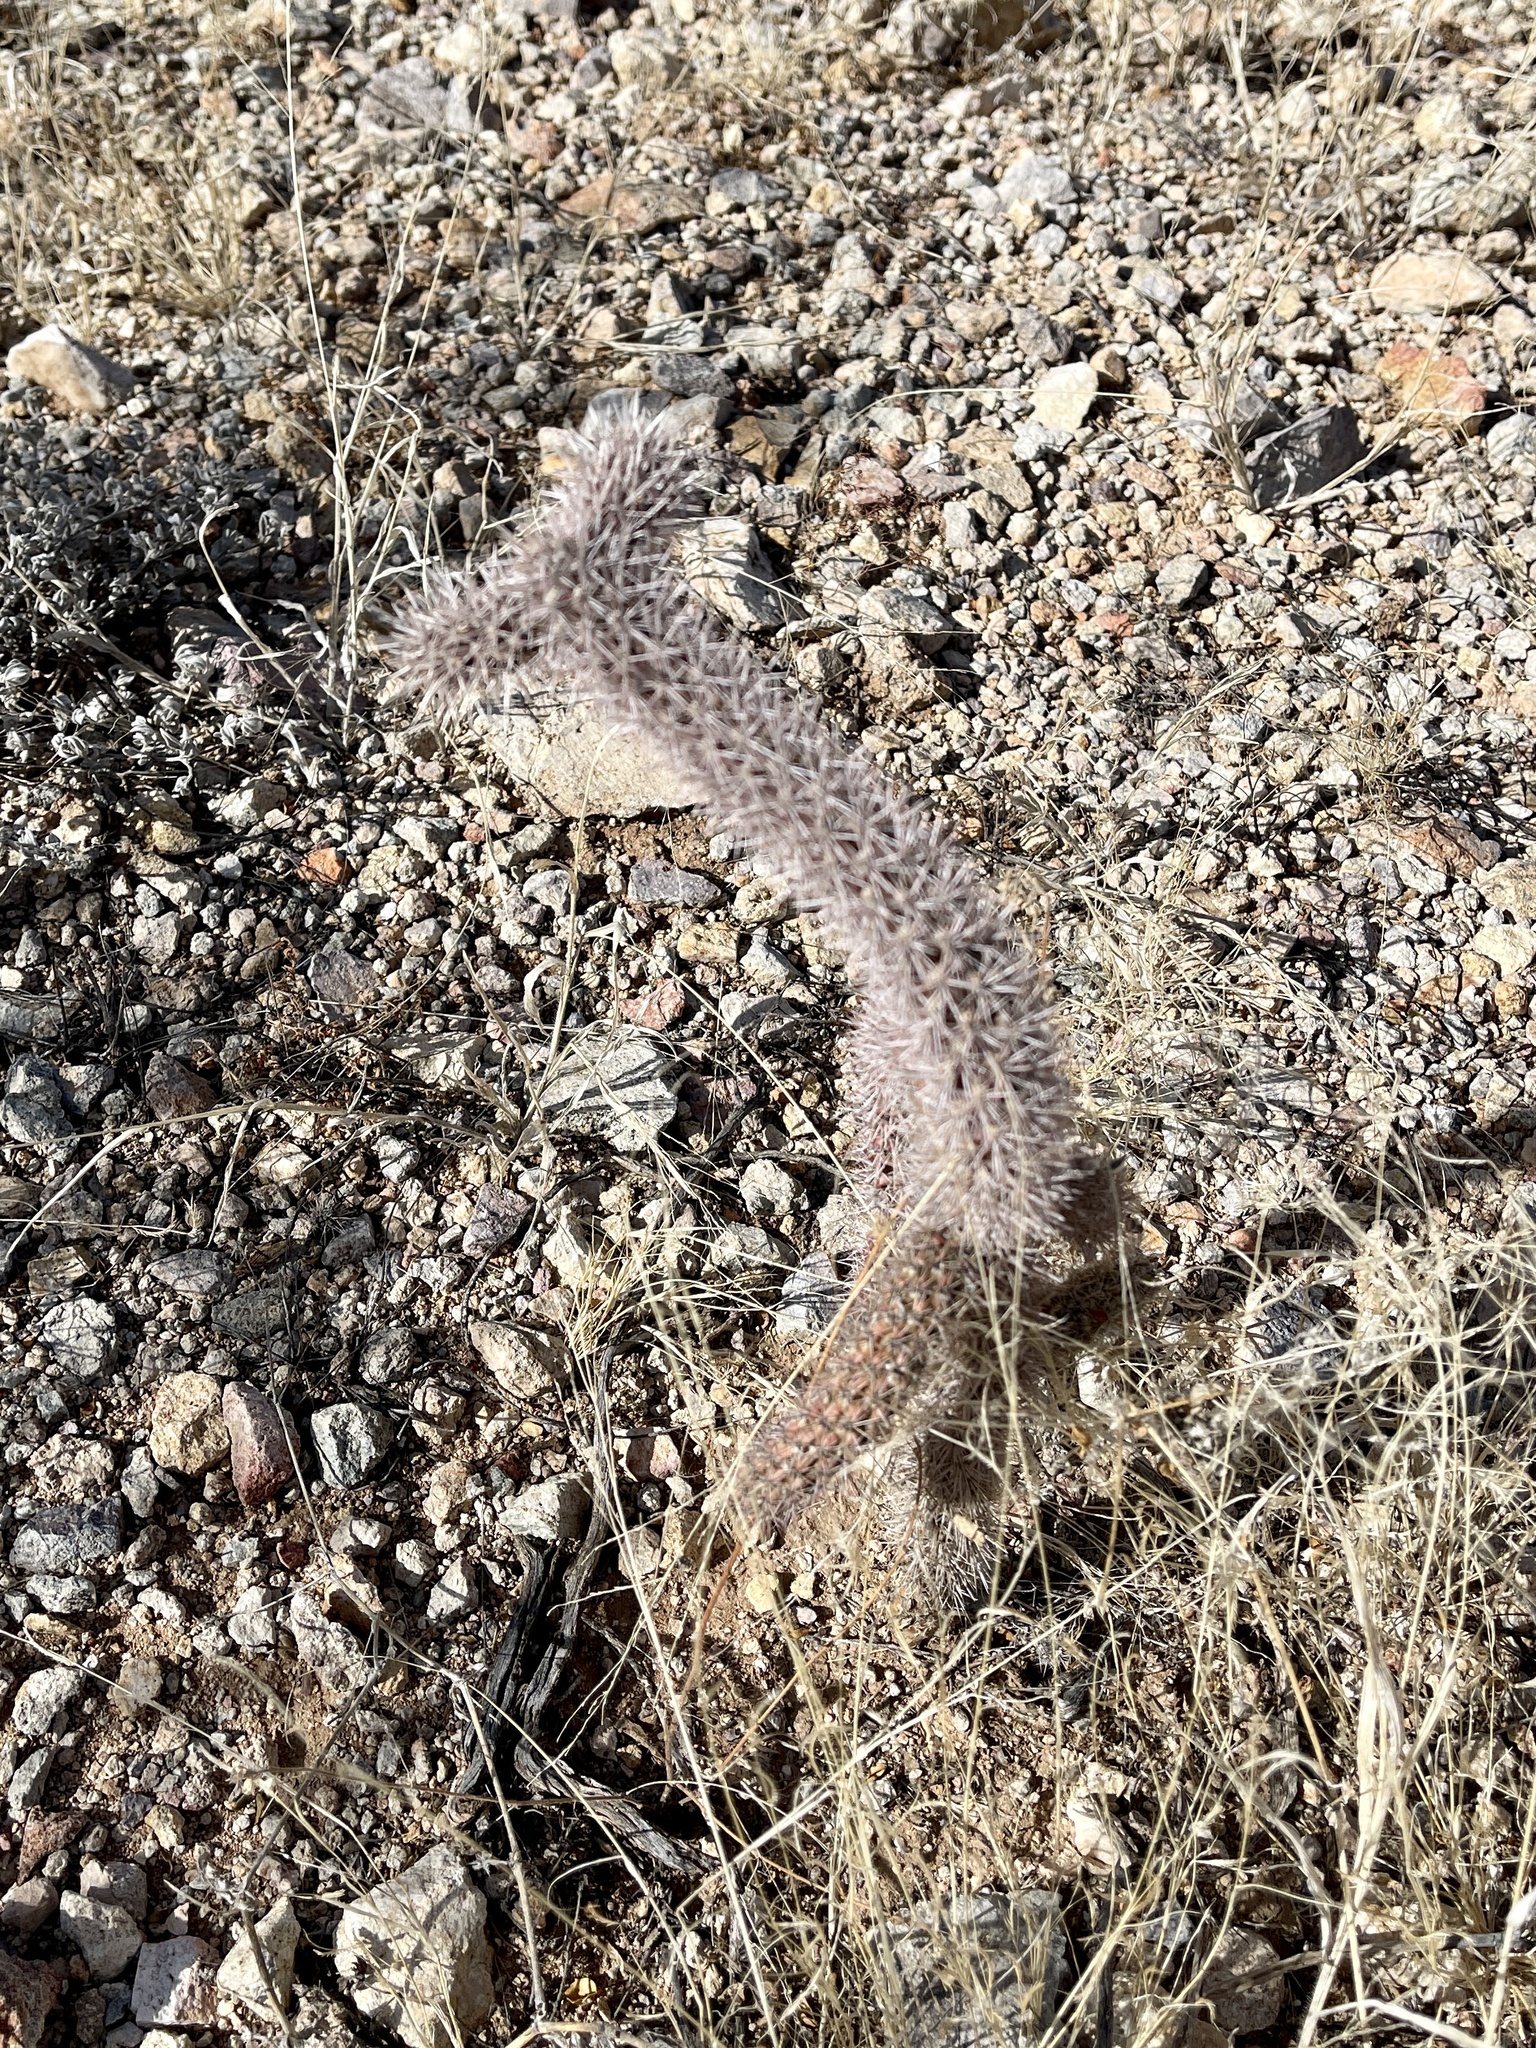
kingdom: Plantae
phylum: Tracheophyta
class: Magnoliopsida
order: Caryophyllales
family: Cactaceae
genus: Cylindropuntia
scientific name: Cylindropuntia imbricata
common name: Candelabrum cactus
